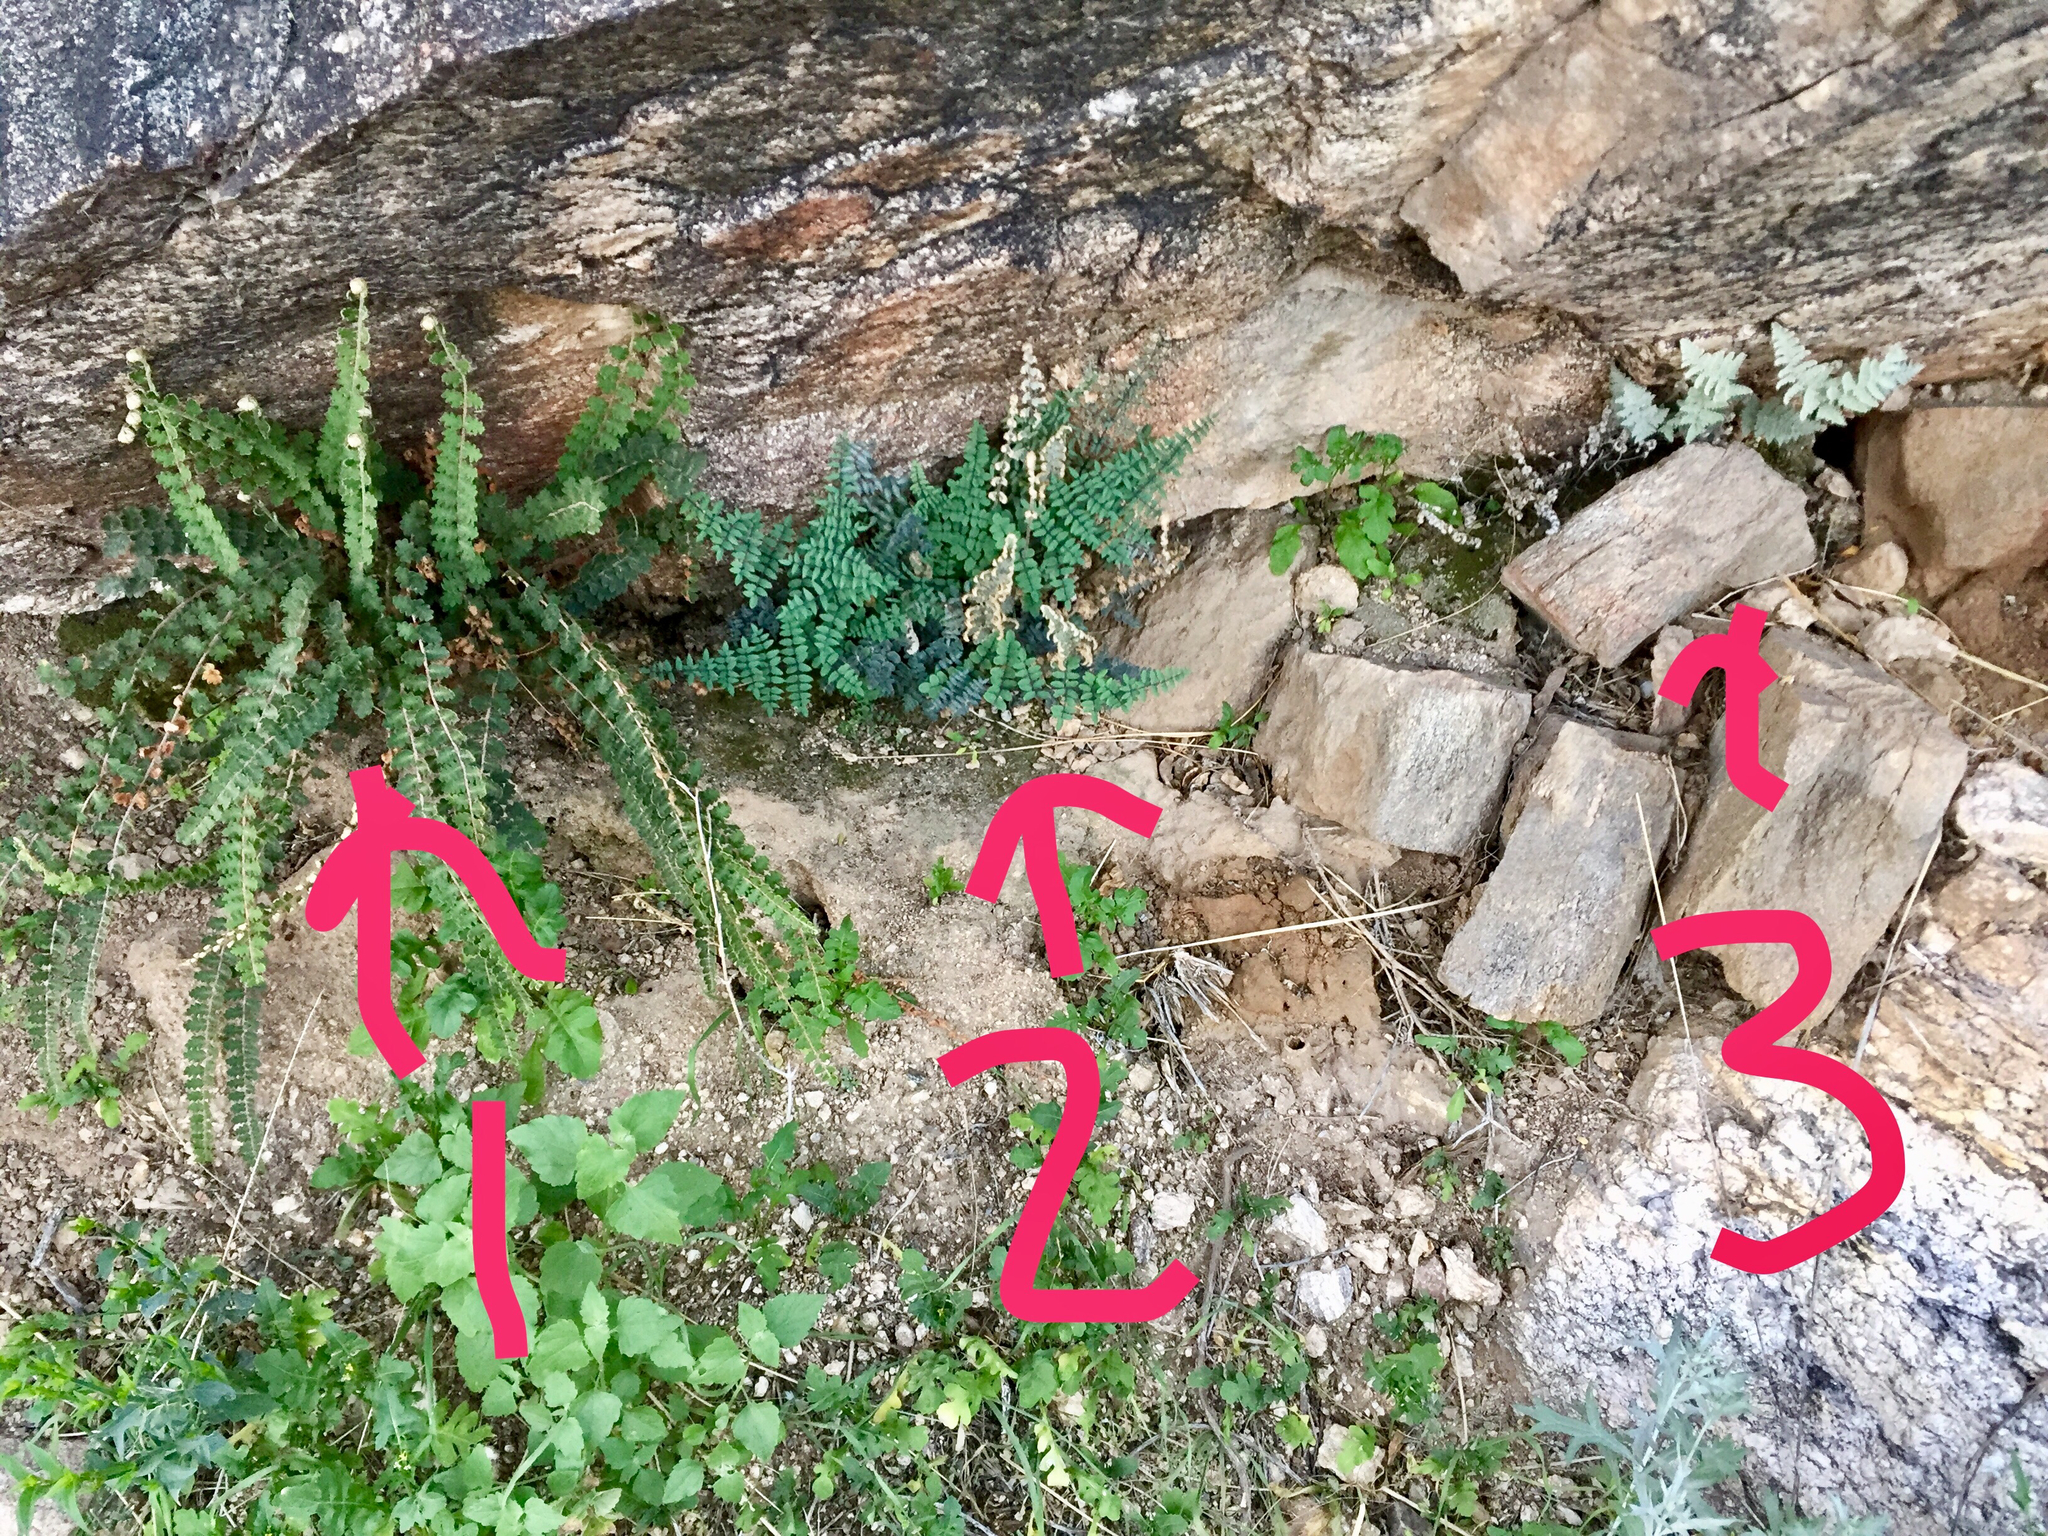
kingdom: Plantae
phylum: Tracheophyta
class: Polypodiopsida
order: Polypodiales
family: Pteridaceae
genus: Astrolepis
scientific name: Astrolepis sinuata
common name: Wavy scaly cloakfern
